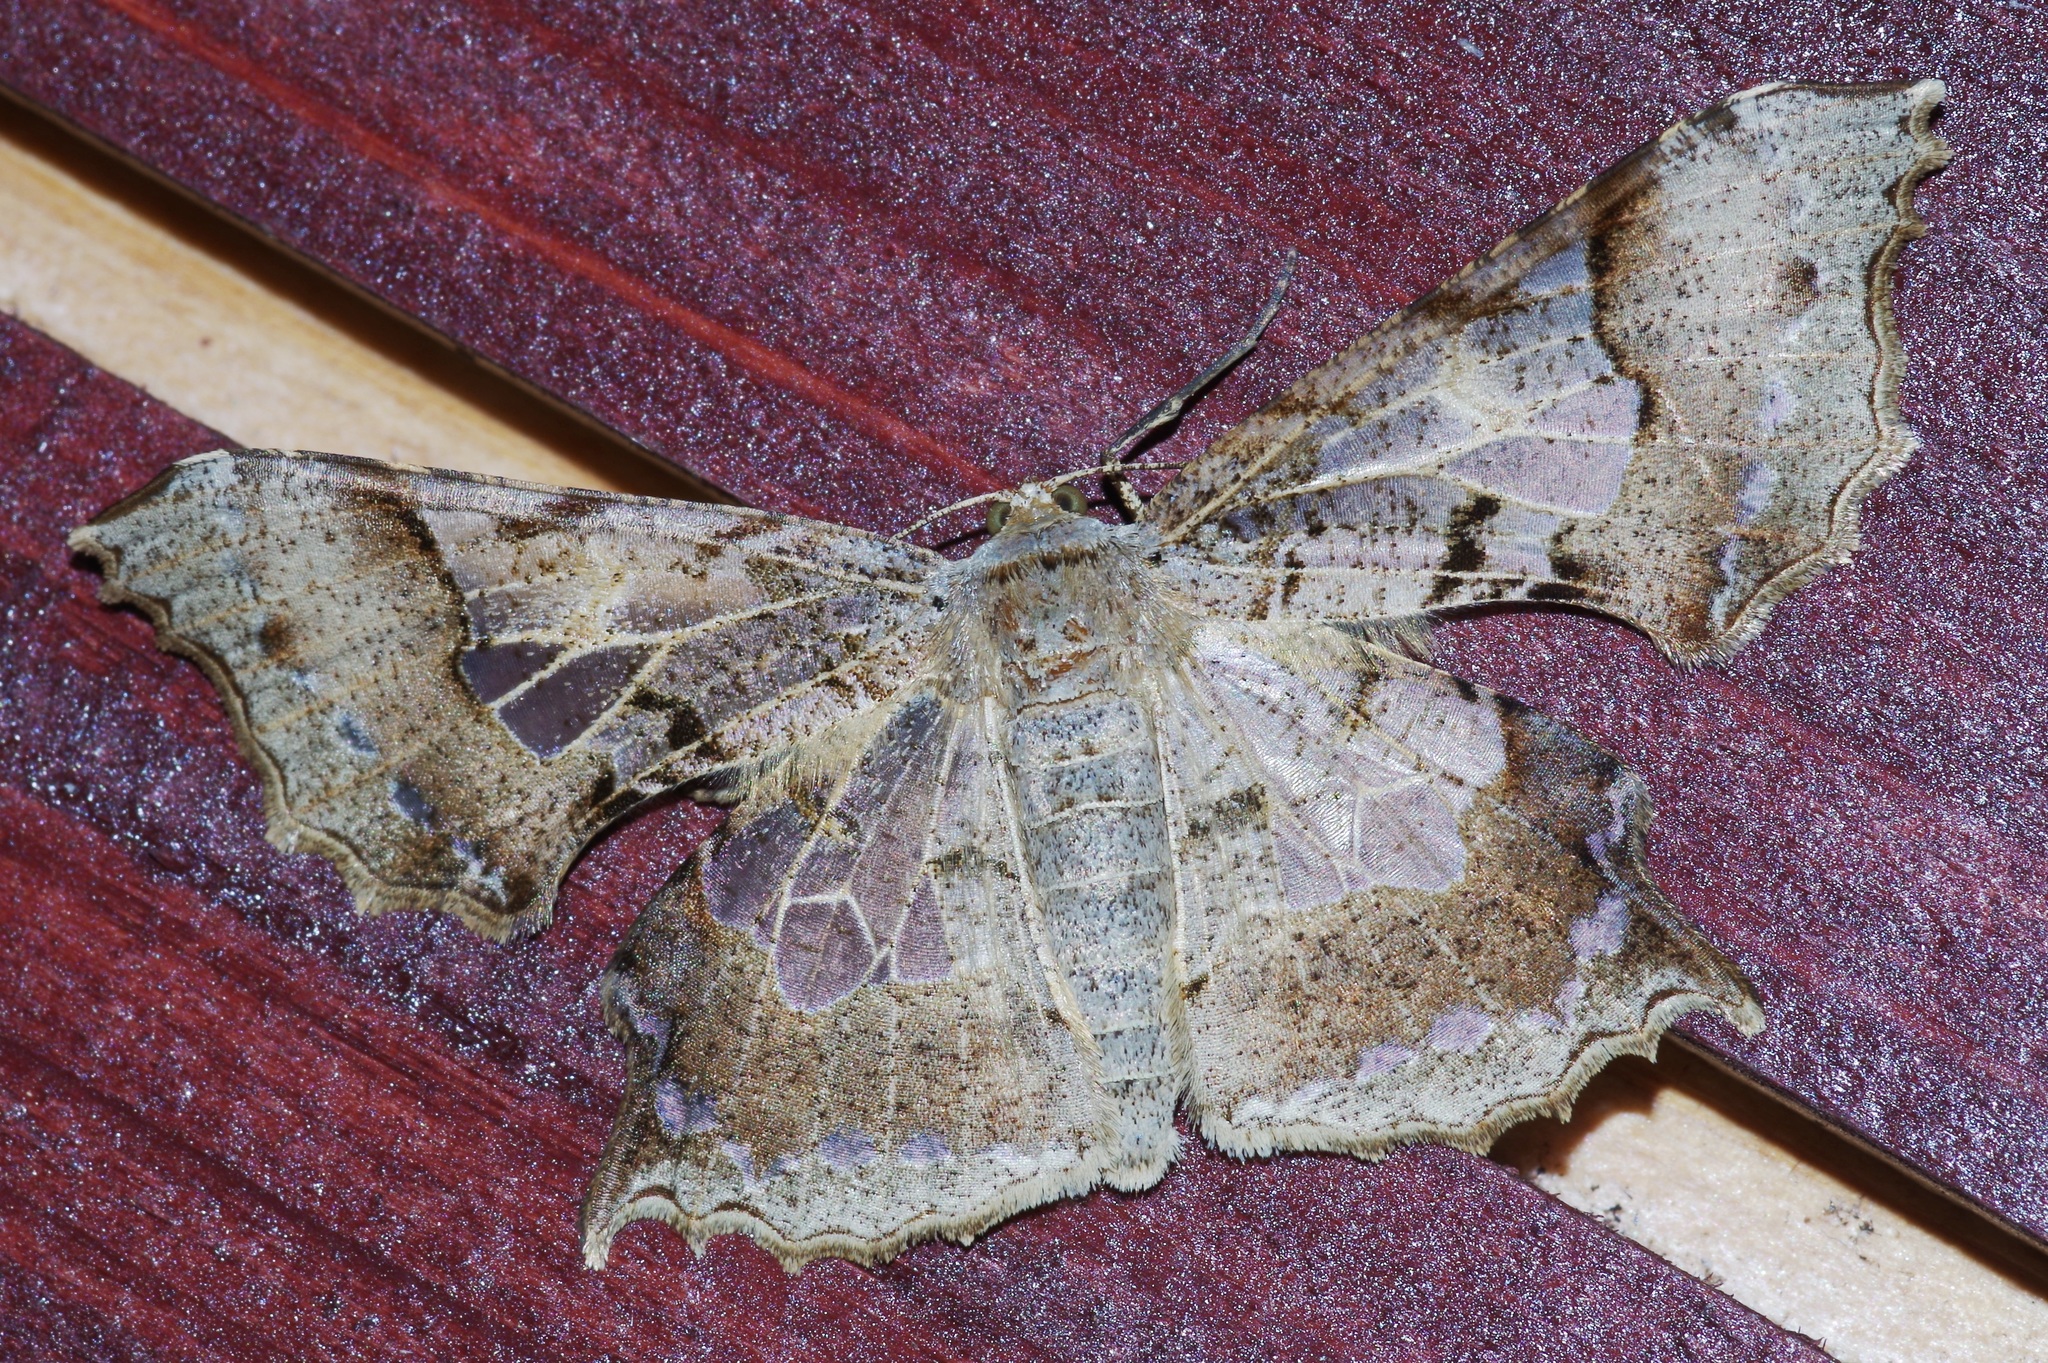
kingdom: Animalia
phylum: Arthropoda
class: Insecta
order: Lepidoptera
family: Geometridae
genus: Krananda
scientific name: Krananda semihyalina
